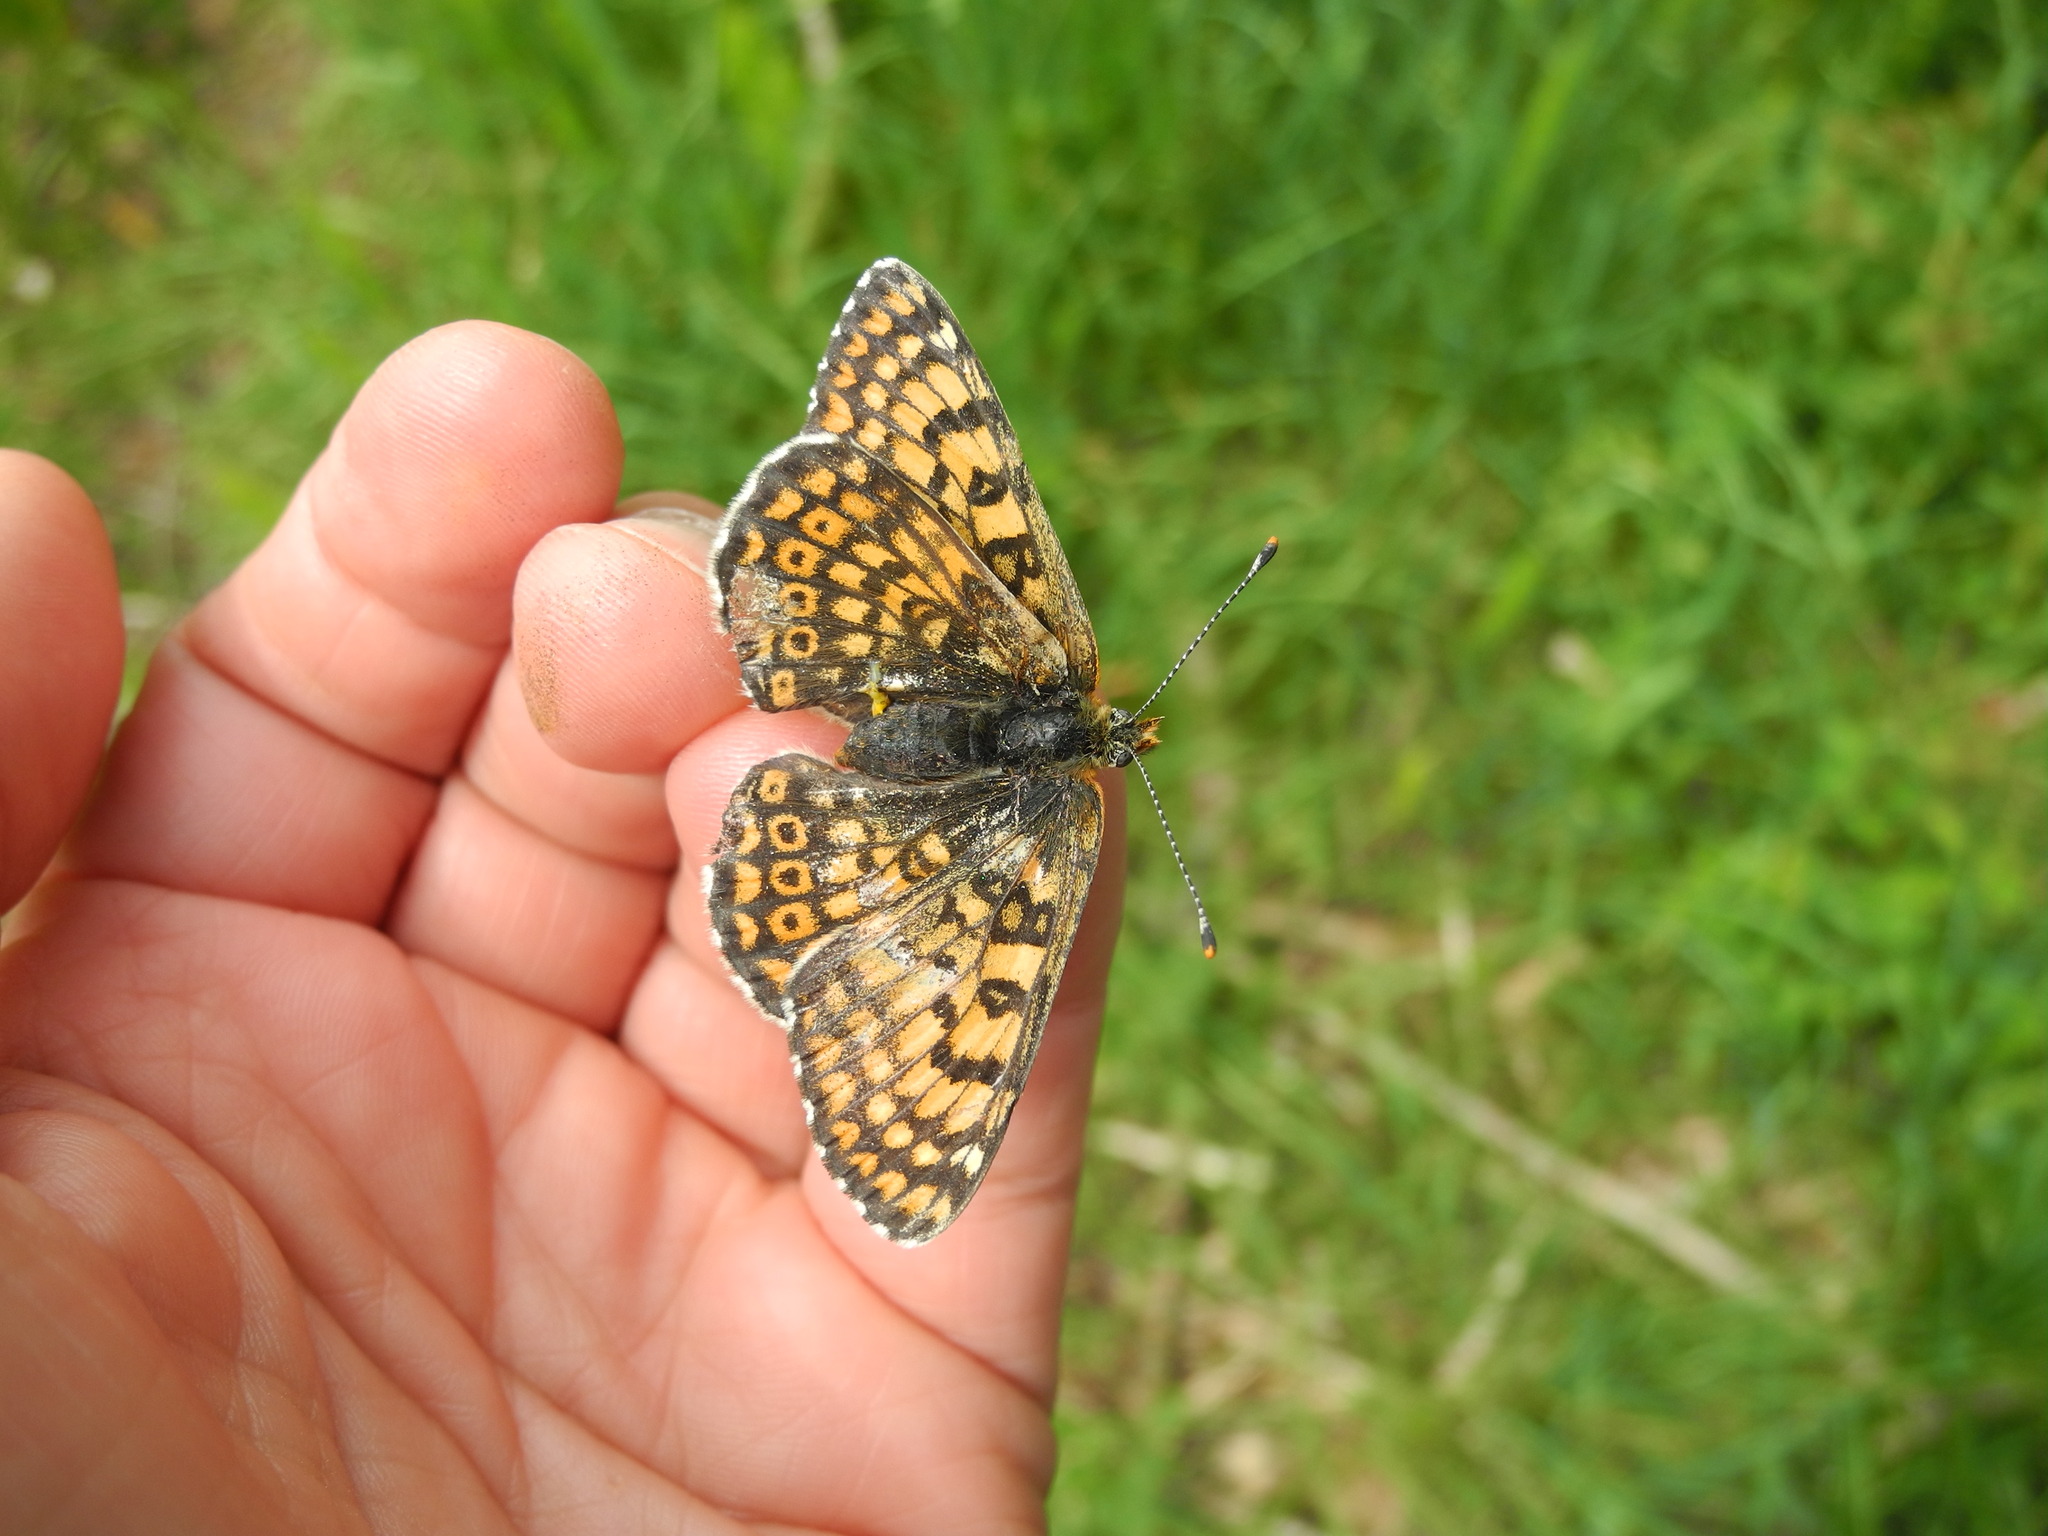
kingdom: Animalia
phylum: Arthropoda
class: Insecta
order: Lepidoptera
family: Nymphalidae
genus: Melitaea
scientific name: Melitaea cinxia
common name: Glanville fritillary
